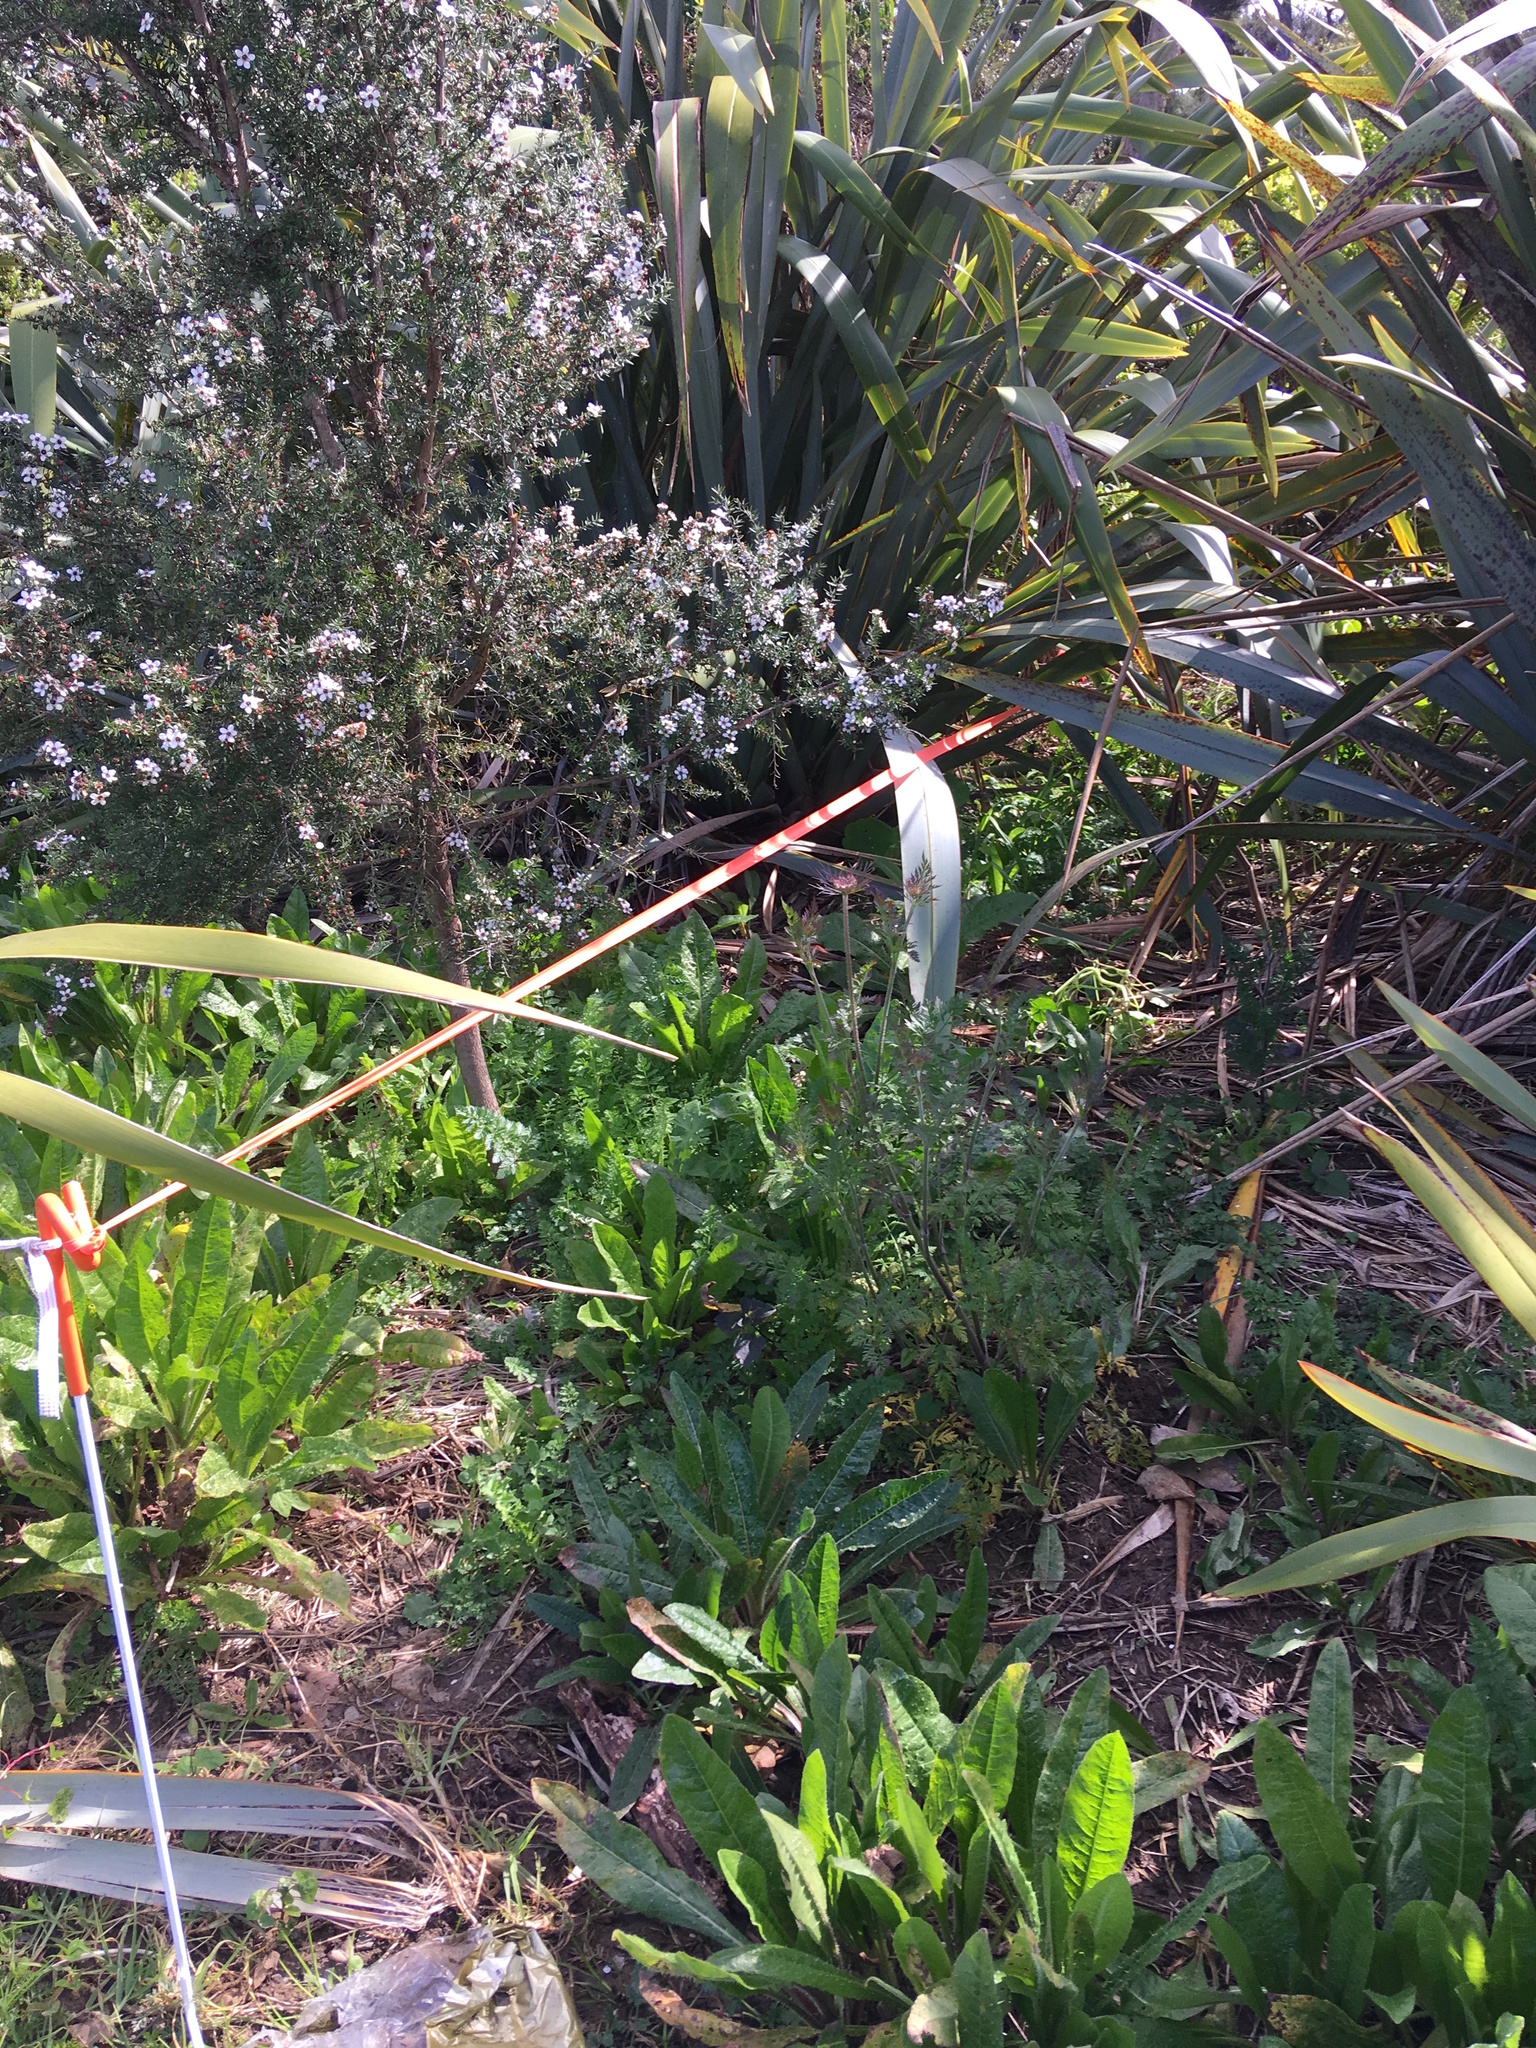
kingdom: Plantae
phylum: Tracheophyta
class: Magnoliopsida
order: Myrtales
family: Myrtaceae
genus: Leptospermum
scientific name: Leptospermum scoparium
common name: Broom tea-tree
